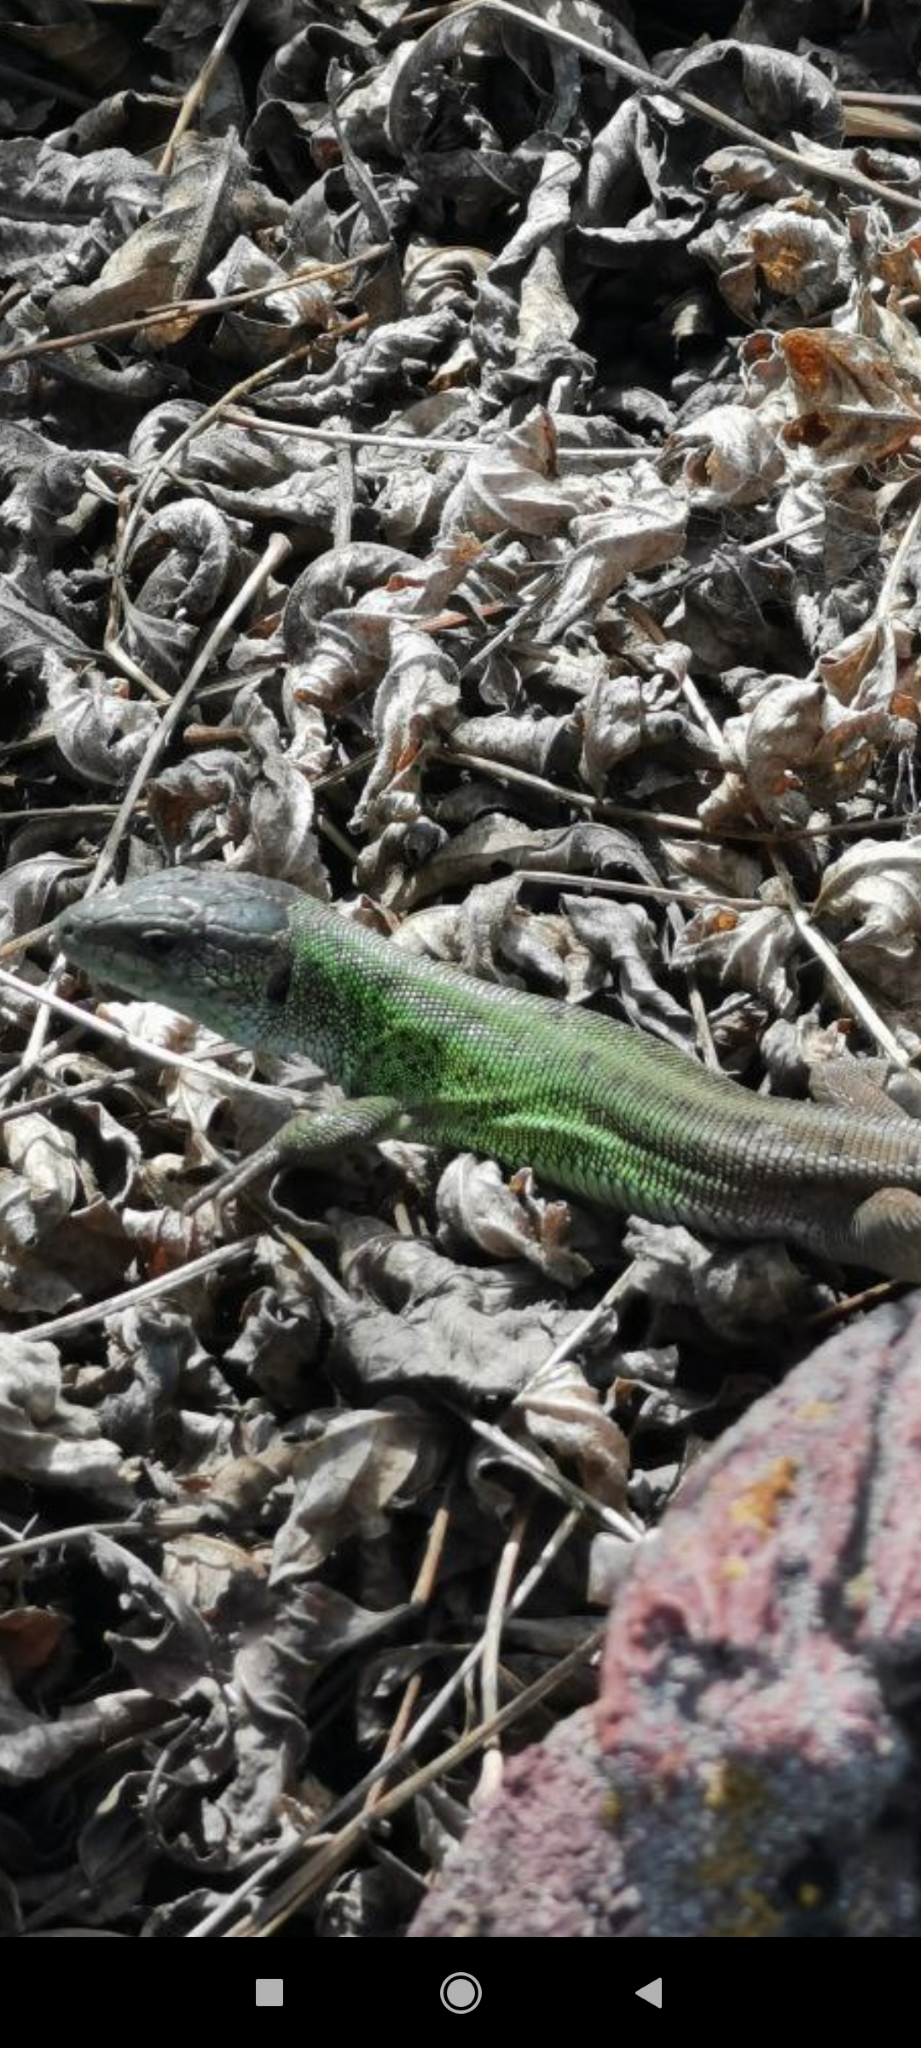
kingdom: Animalia
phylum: Chordata
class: Squamata
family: Lacertidae
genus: Lacerta
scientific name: Lacerta strigata
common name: Caspian green lizard
